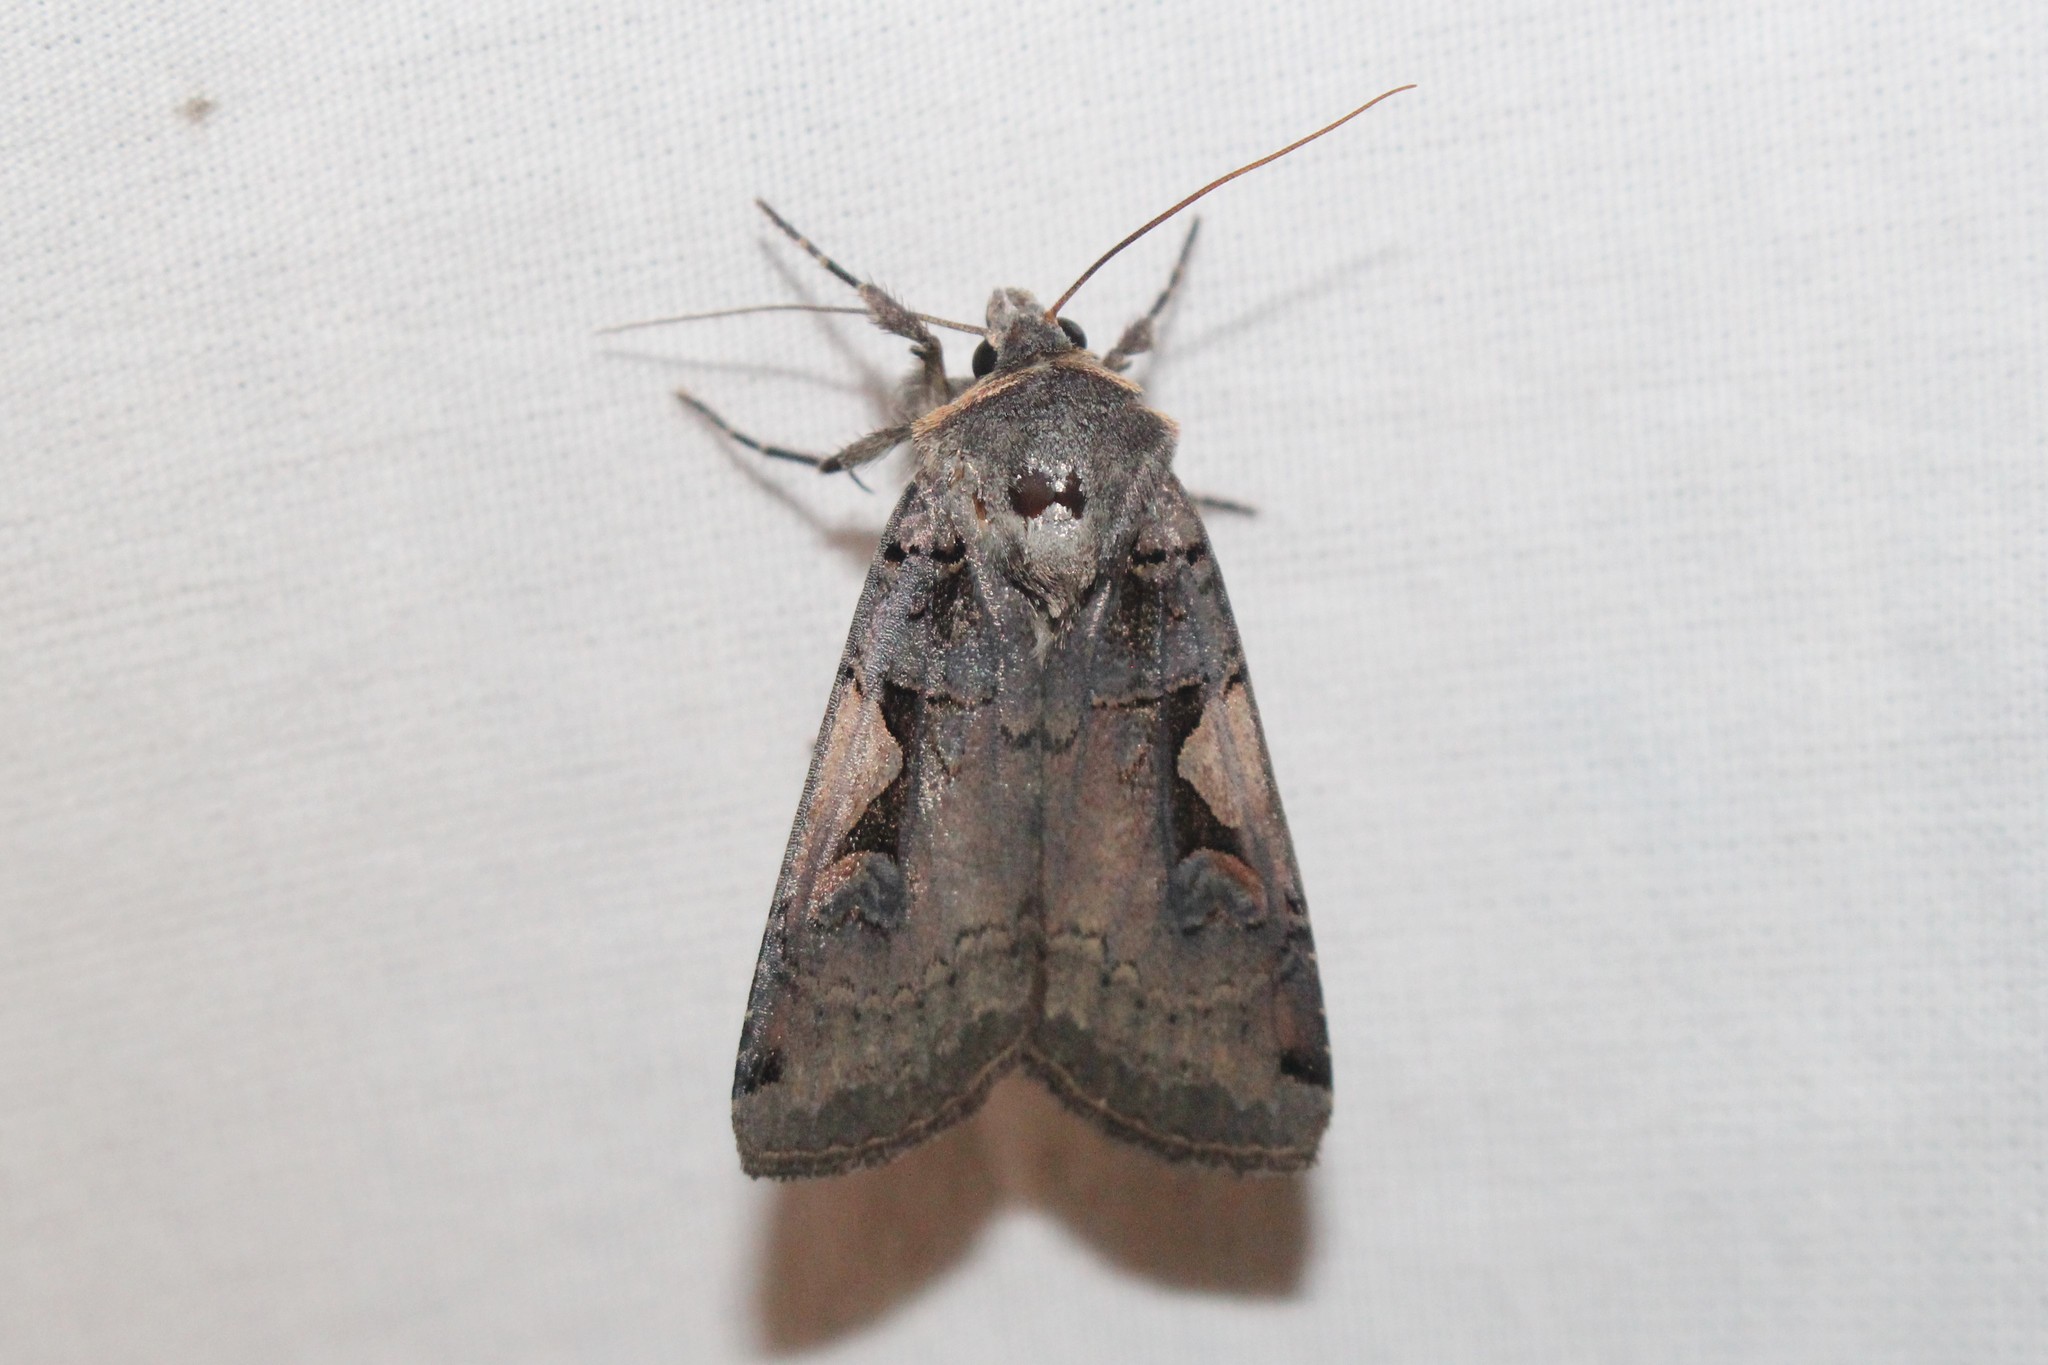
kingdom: Animalia
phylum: Arthropoda
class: Insecta
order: Lepidoptera
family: Noctuidae
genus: Xestia
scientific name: Xestia
